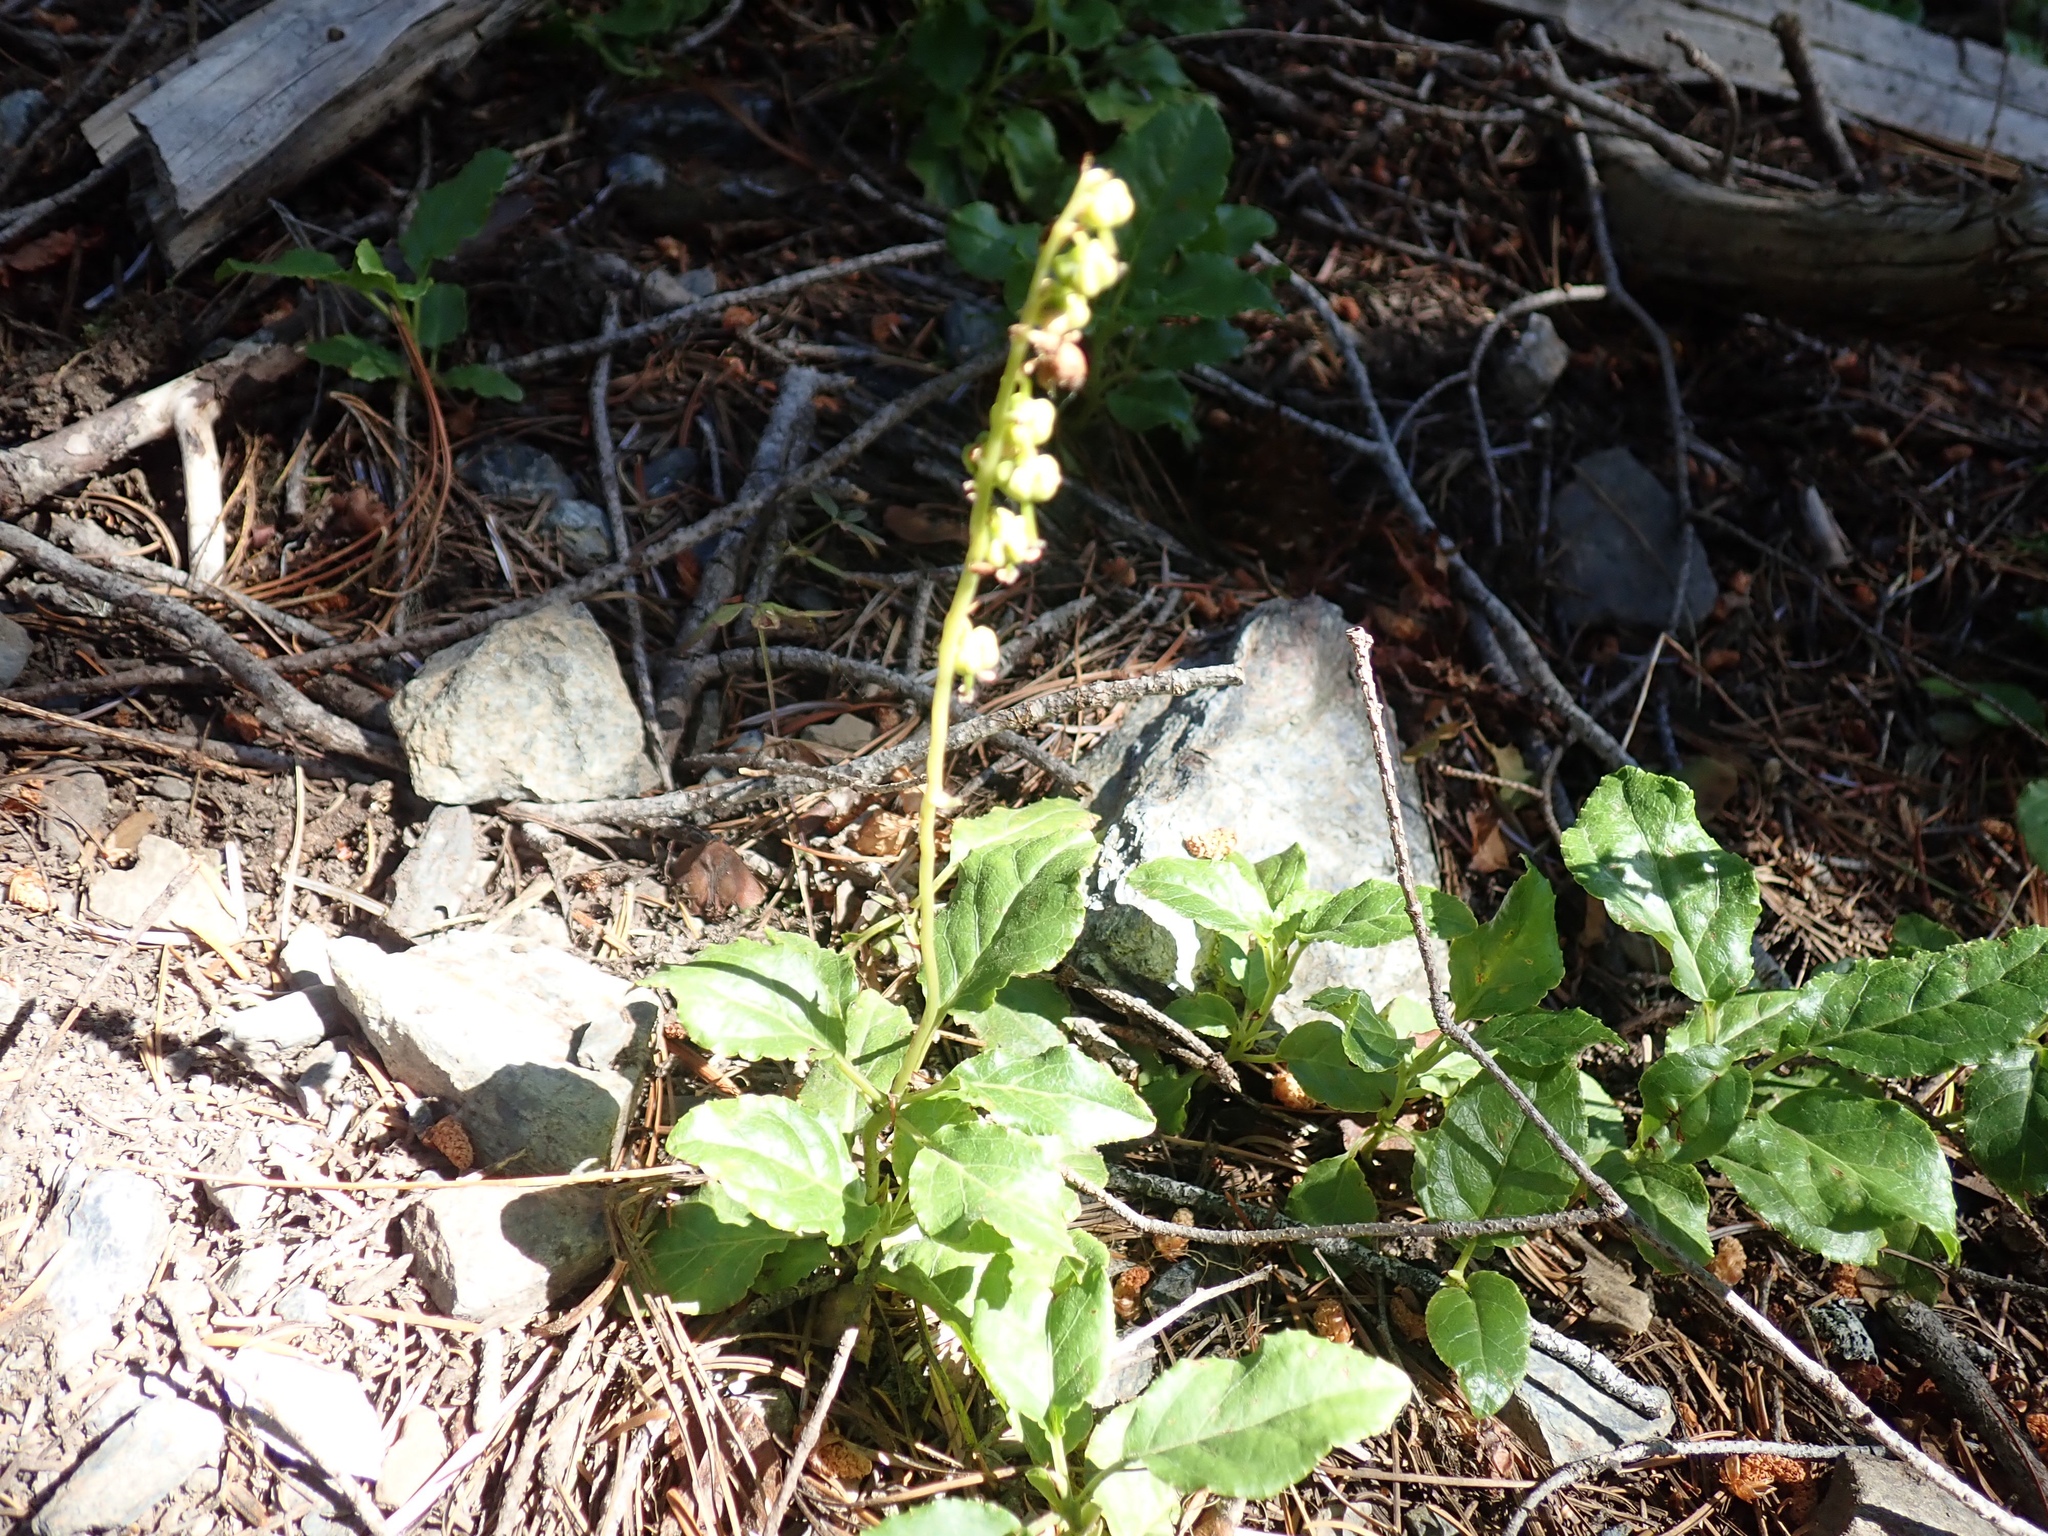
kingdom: Plantae
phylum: Tracheophyta
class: Magnoliopsida
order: Ericales
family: Ericaceae
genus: Orthilia
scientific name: Orthilia secunda
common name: One-sided orthilia
